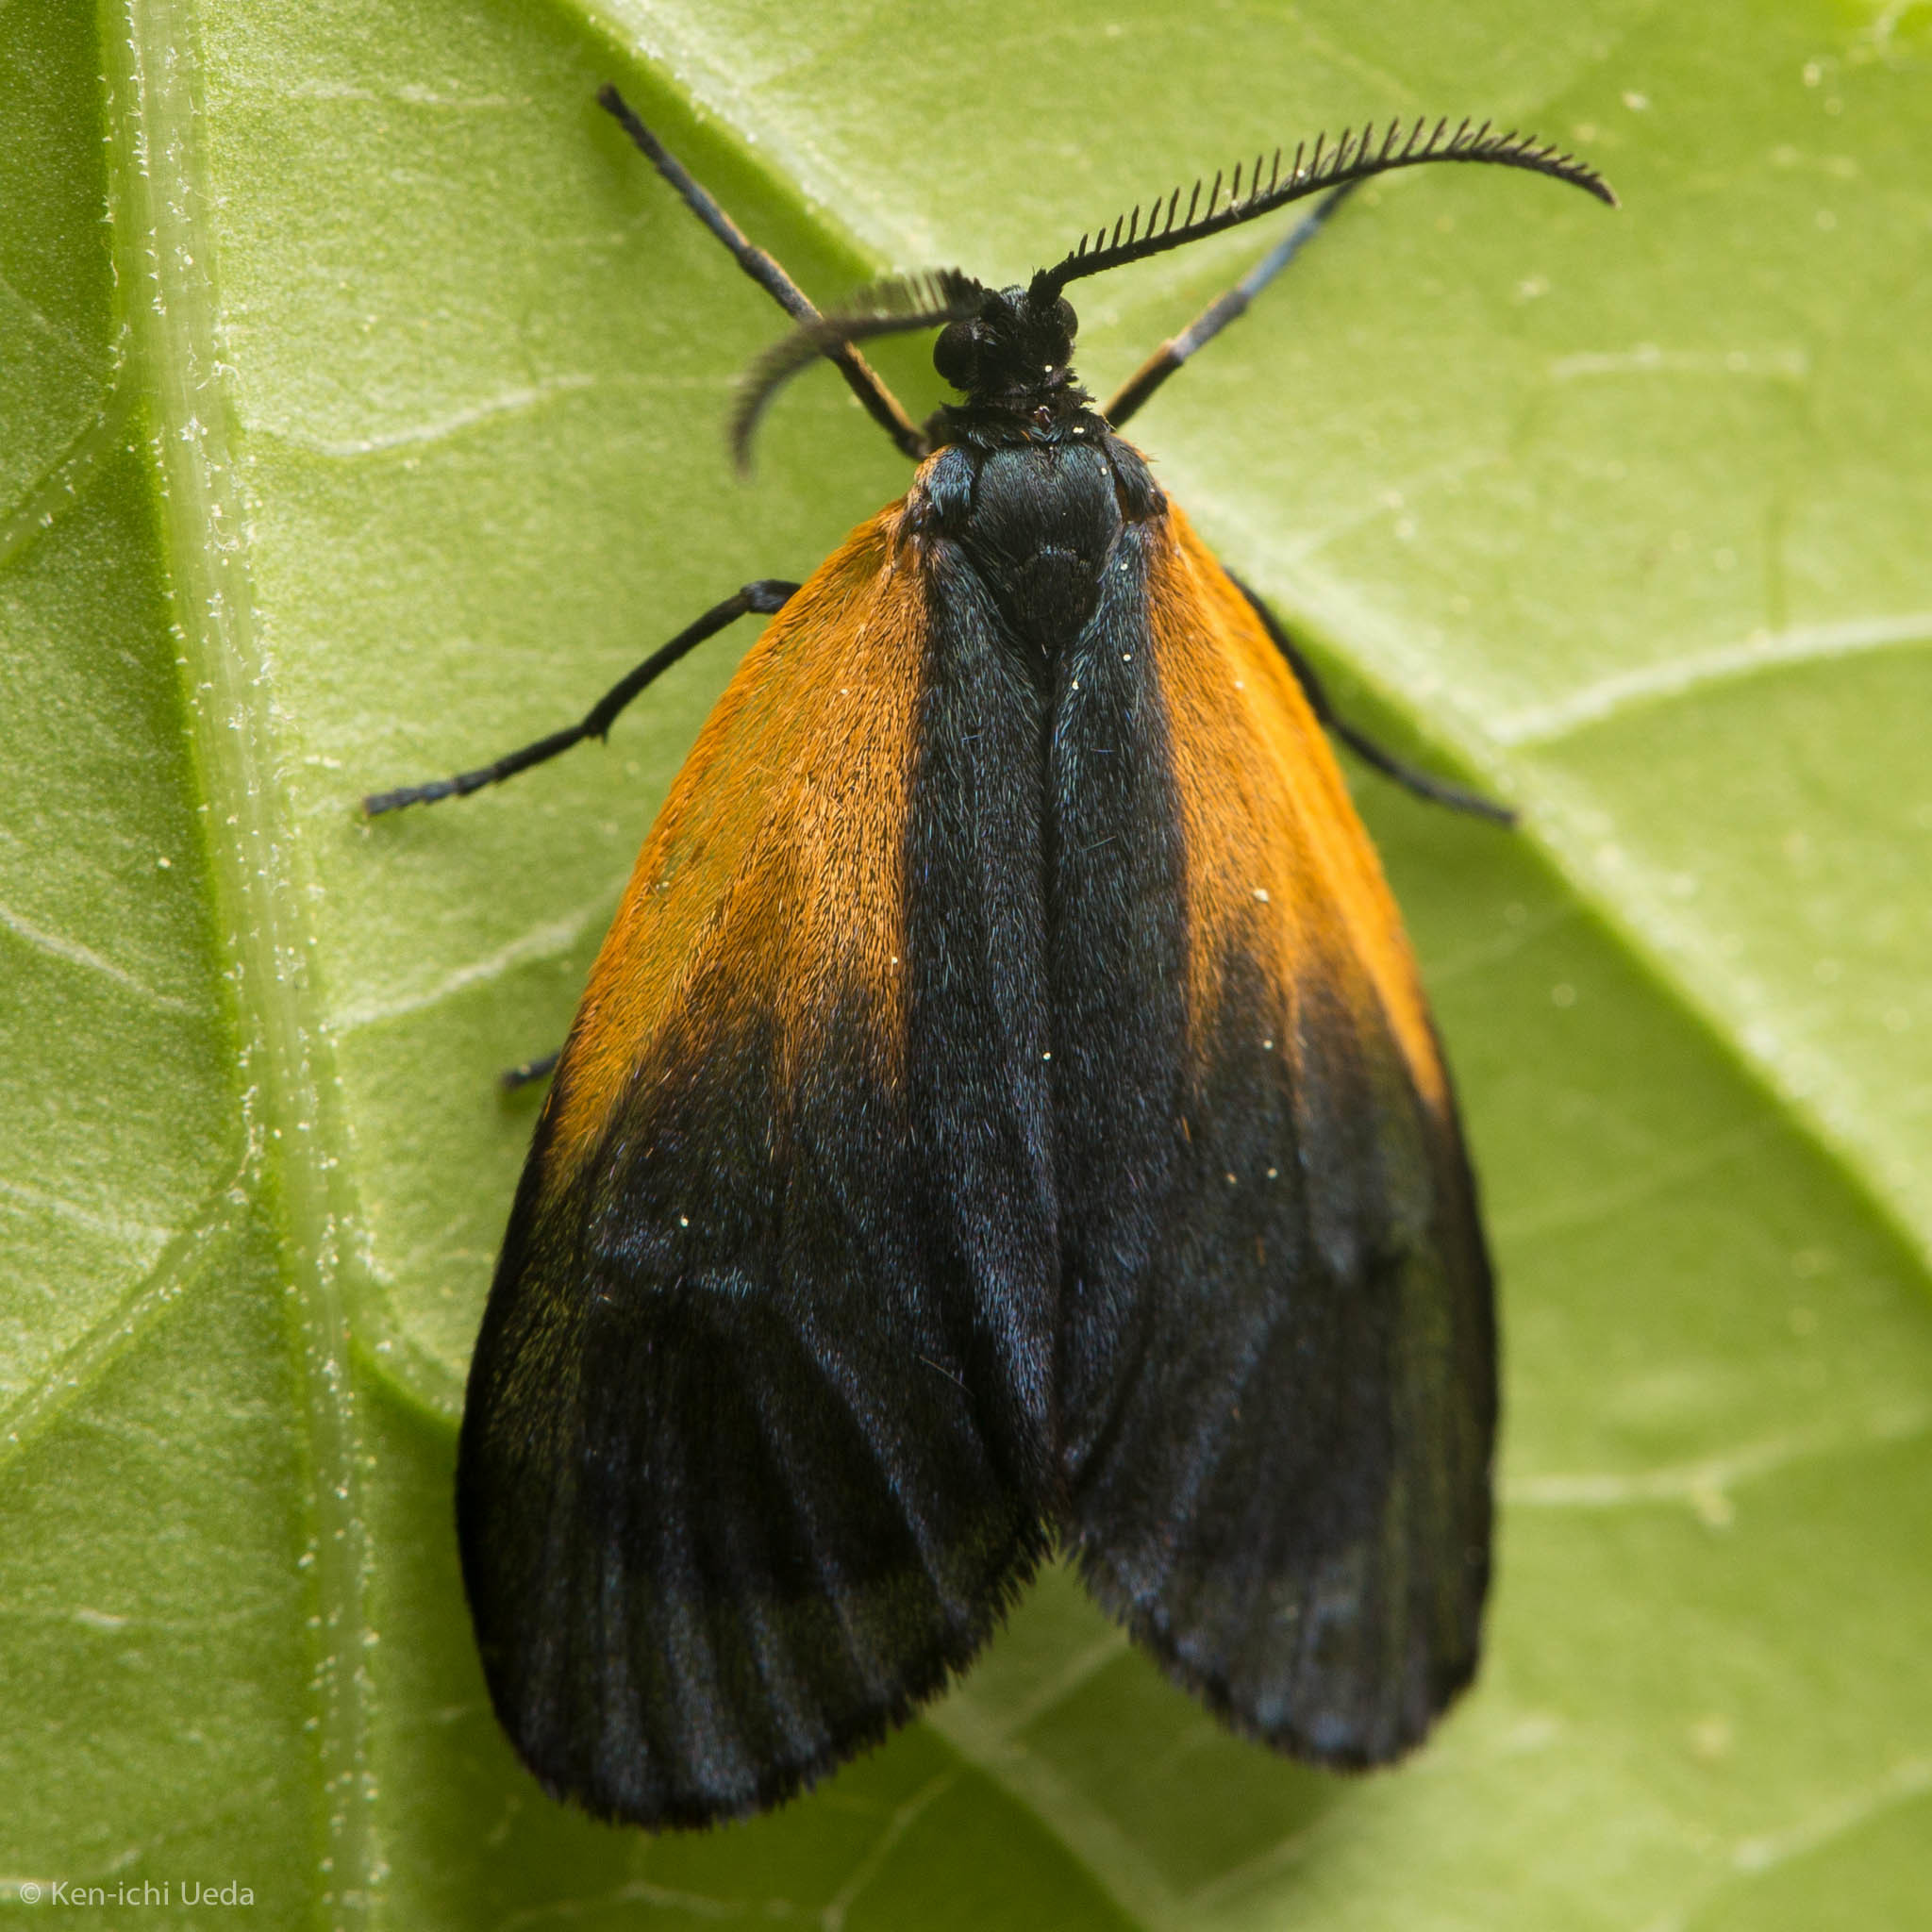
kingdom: Animalia
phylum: Arthropoda
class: Insecta
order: Lepidoptera
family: Zygaenidae
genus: Malthaca
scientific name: Malthaca dimidiata
